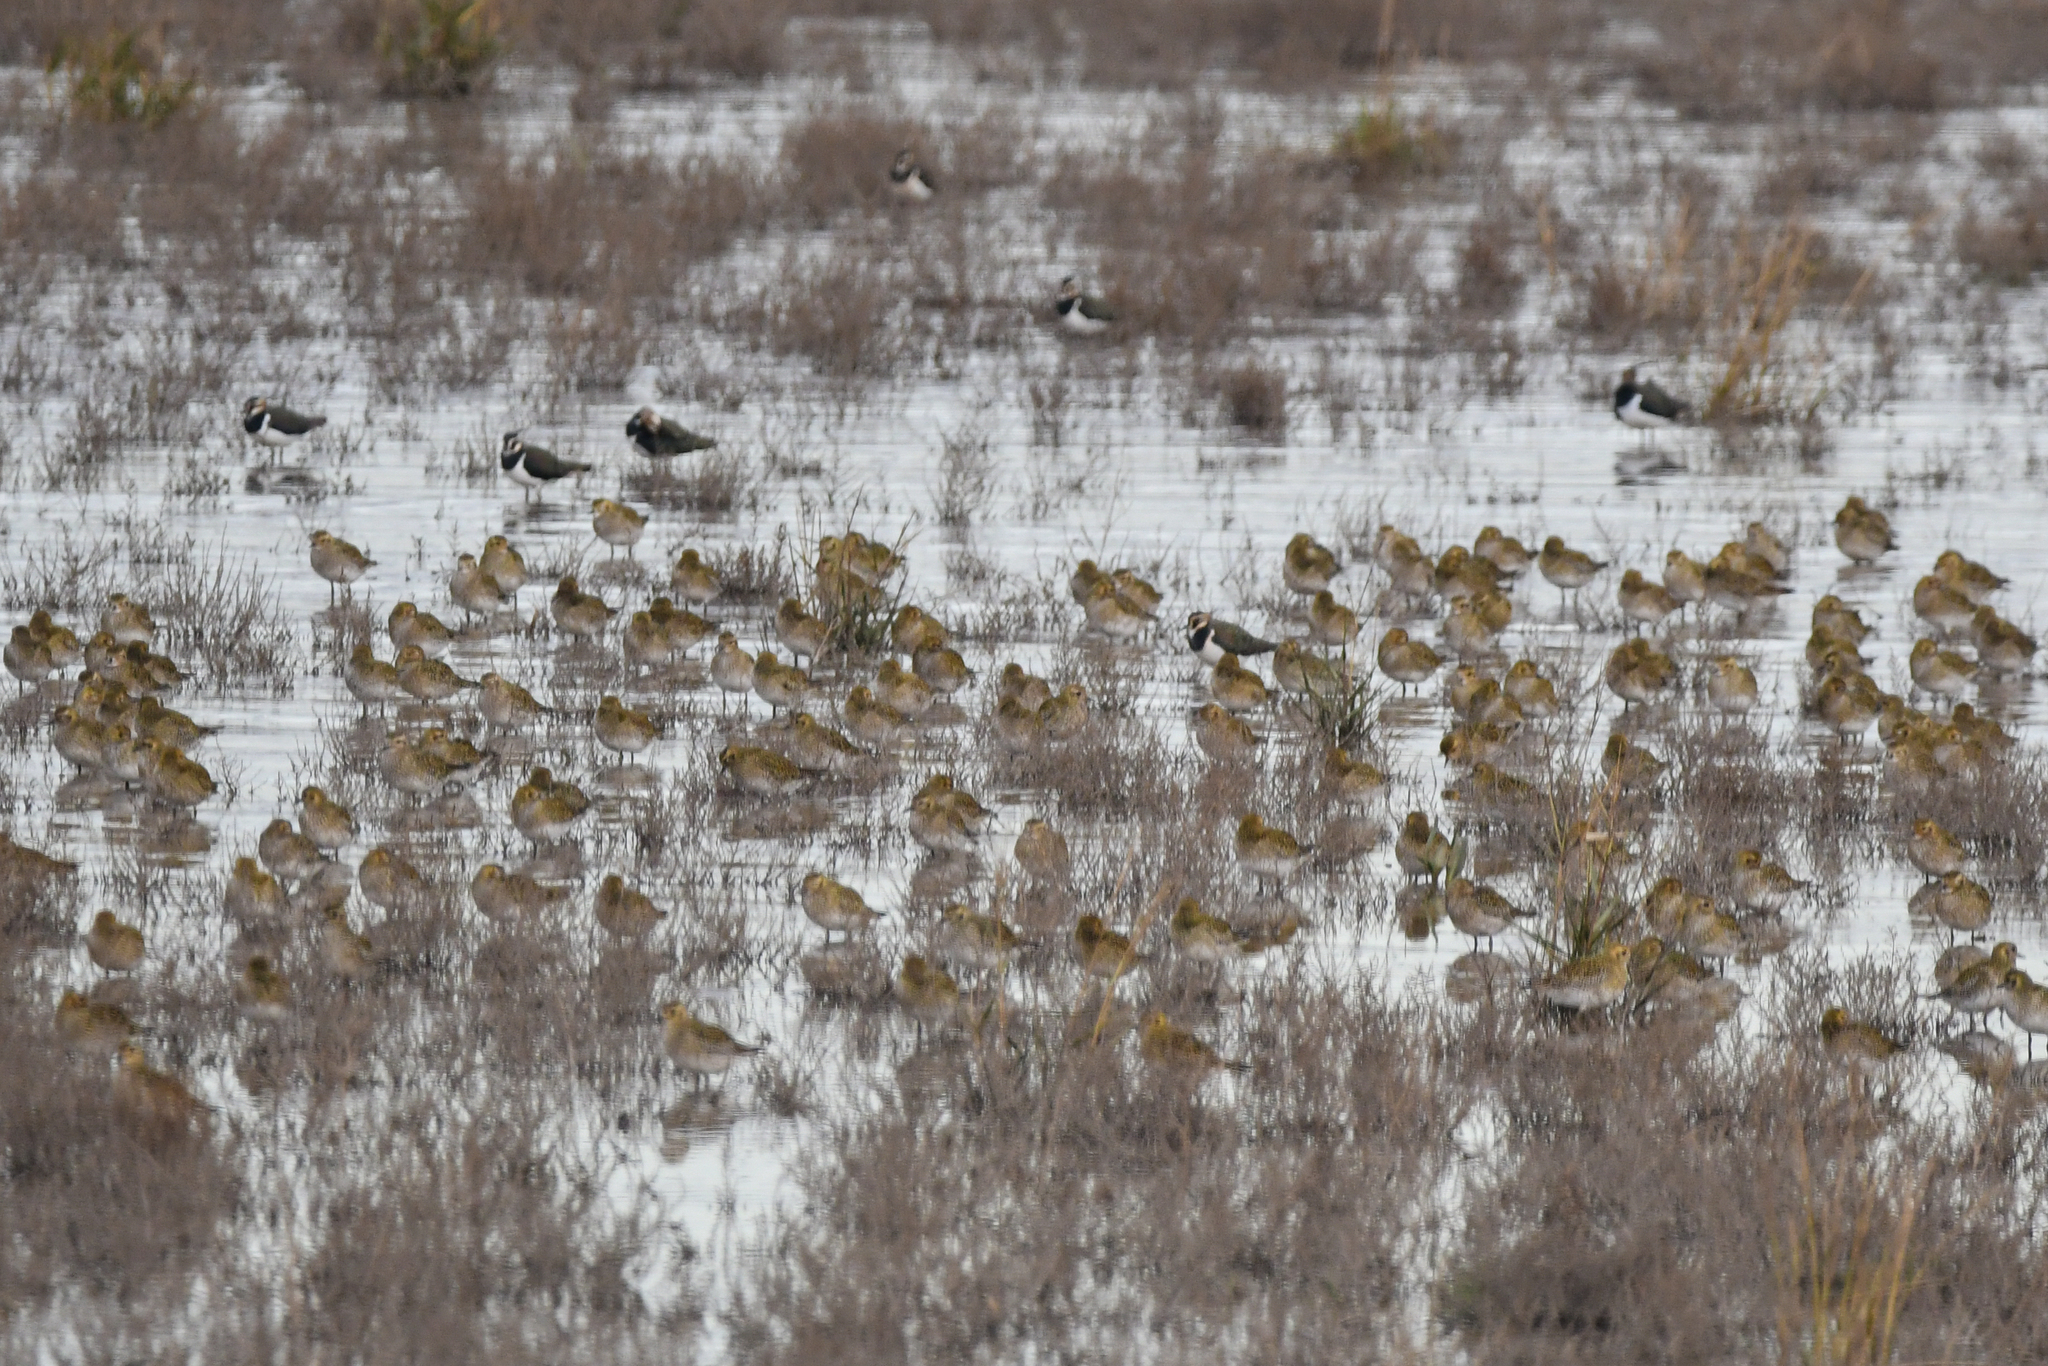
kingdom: Animalia
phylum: Chordata
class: Aves
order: Charadriiformes
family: Charadriidae
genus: Pluvialis
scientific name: Pluvialis apricaria
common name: European golden plover
